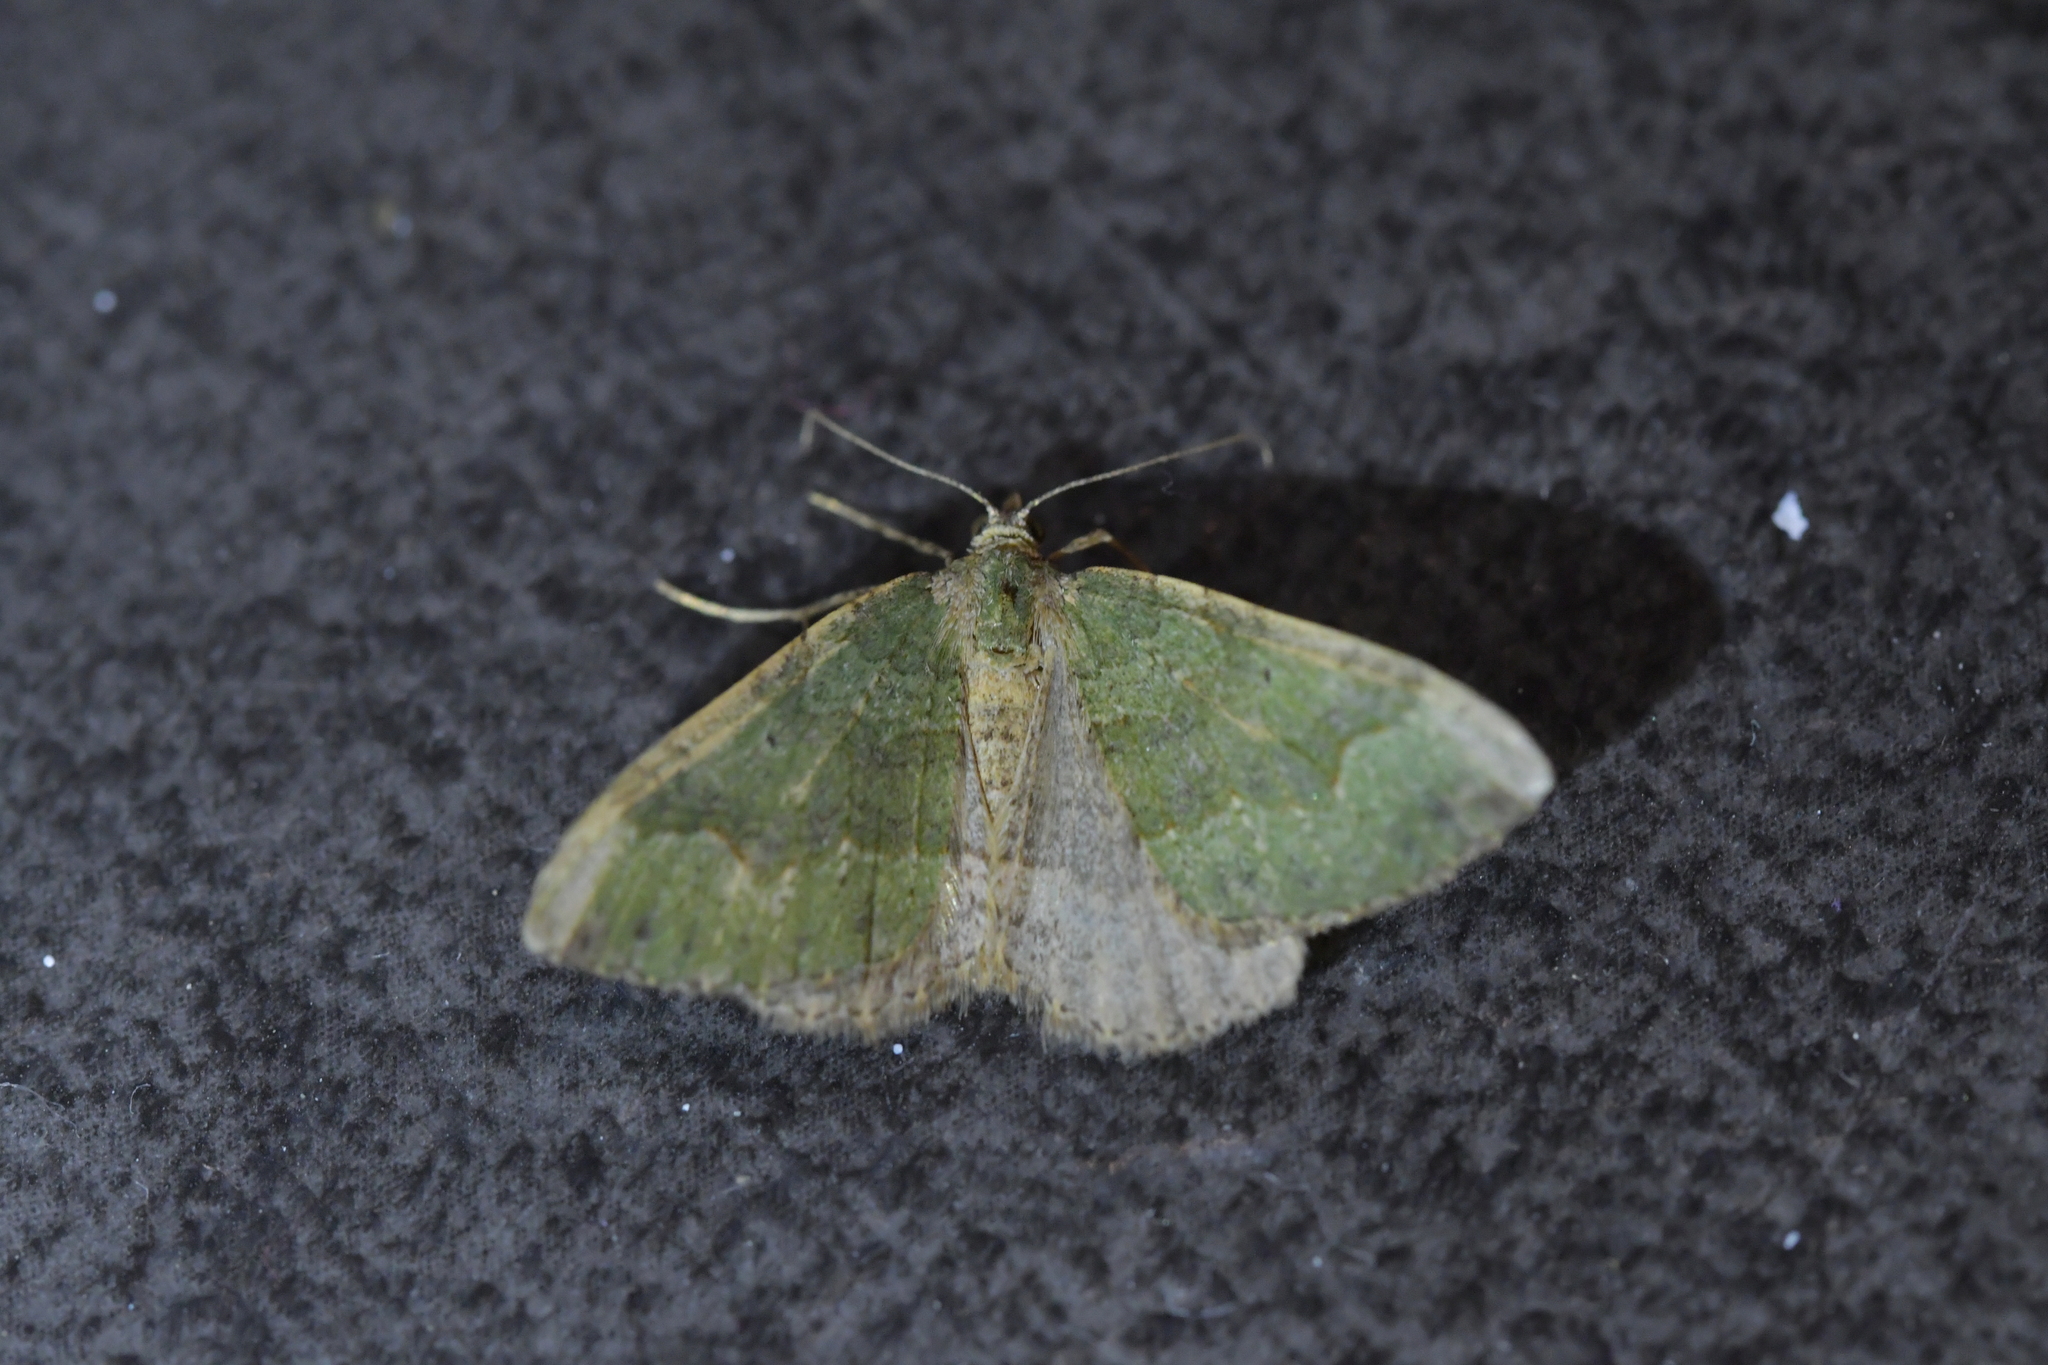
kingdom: Animalia
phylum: Arthropoda
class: Insecta
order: Lepidoptera
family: Geometridae
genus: Epyaxa
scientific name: Epyaxa rosearia
